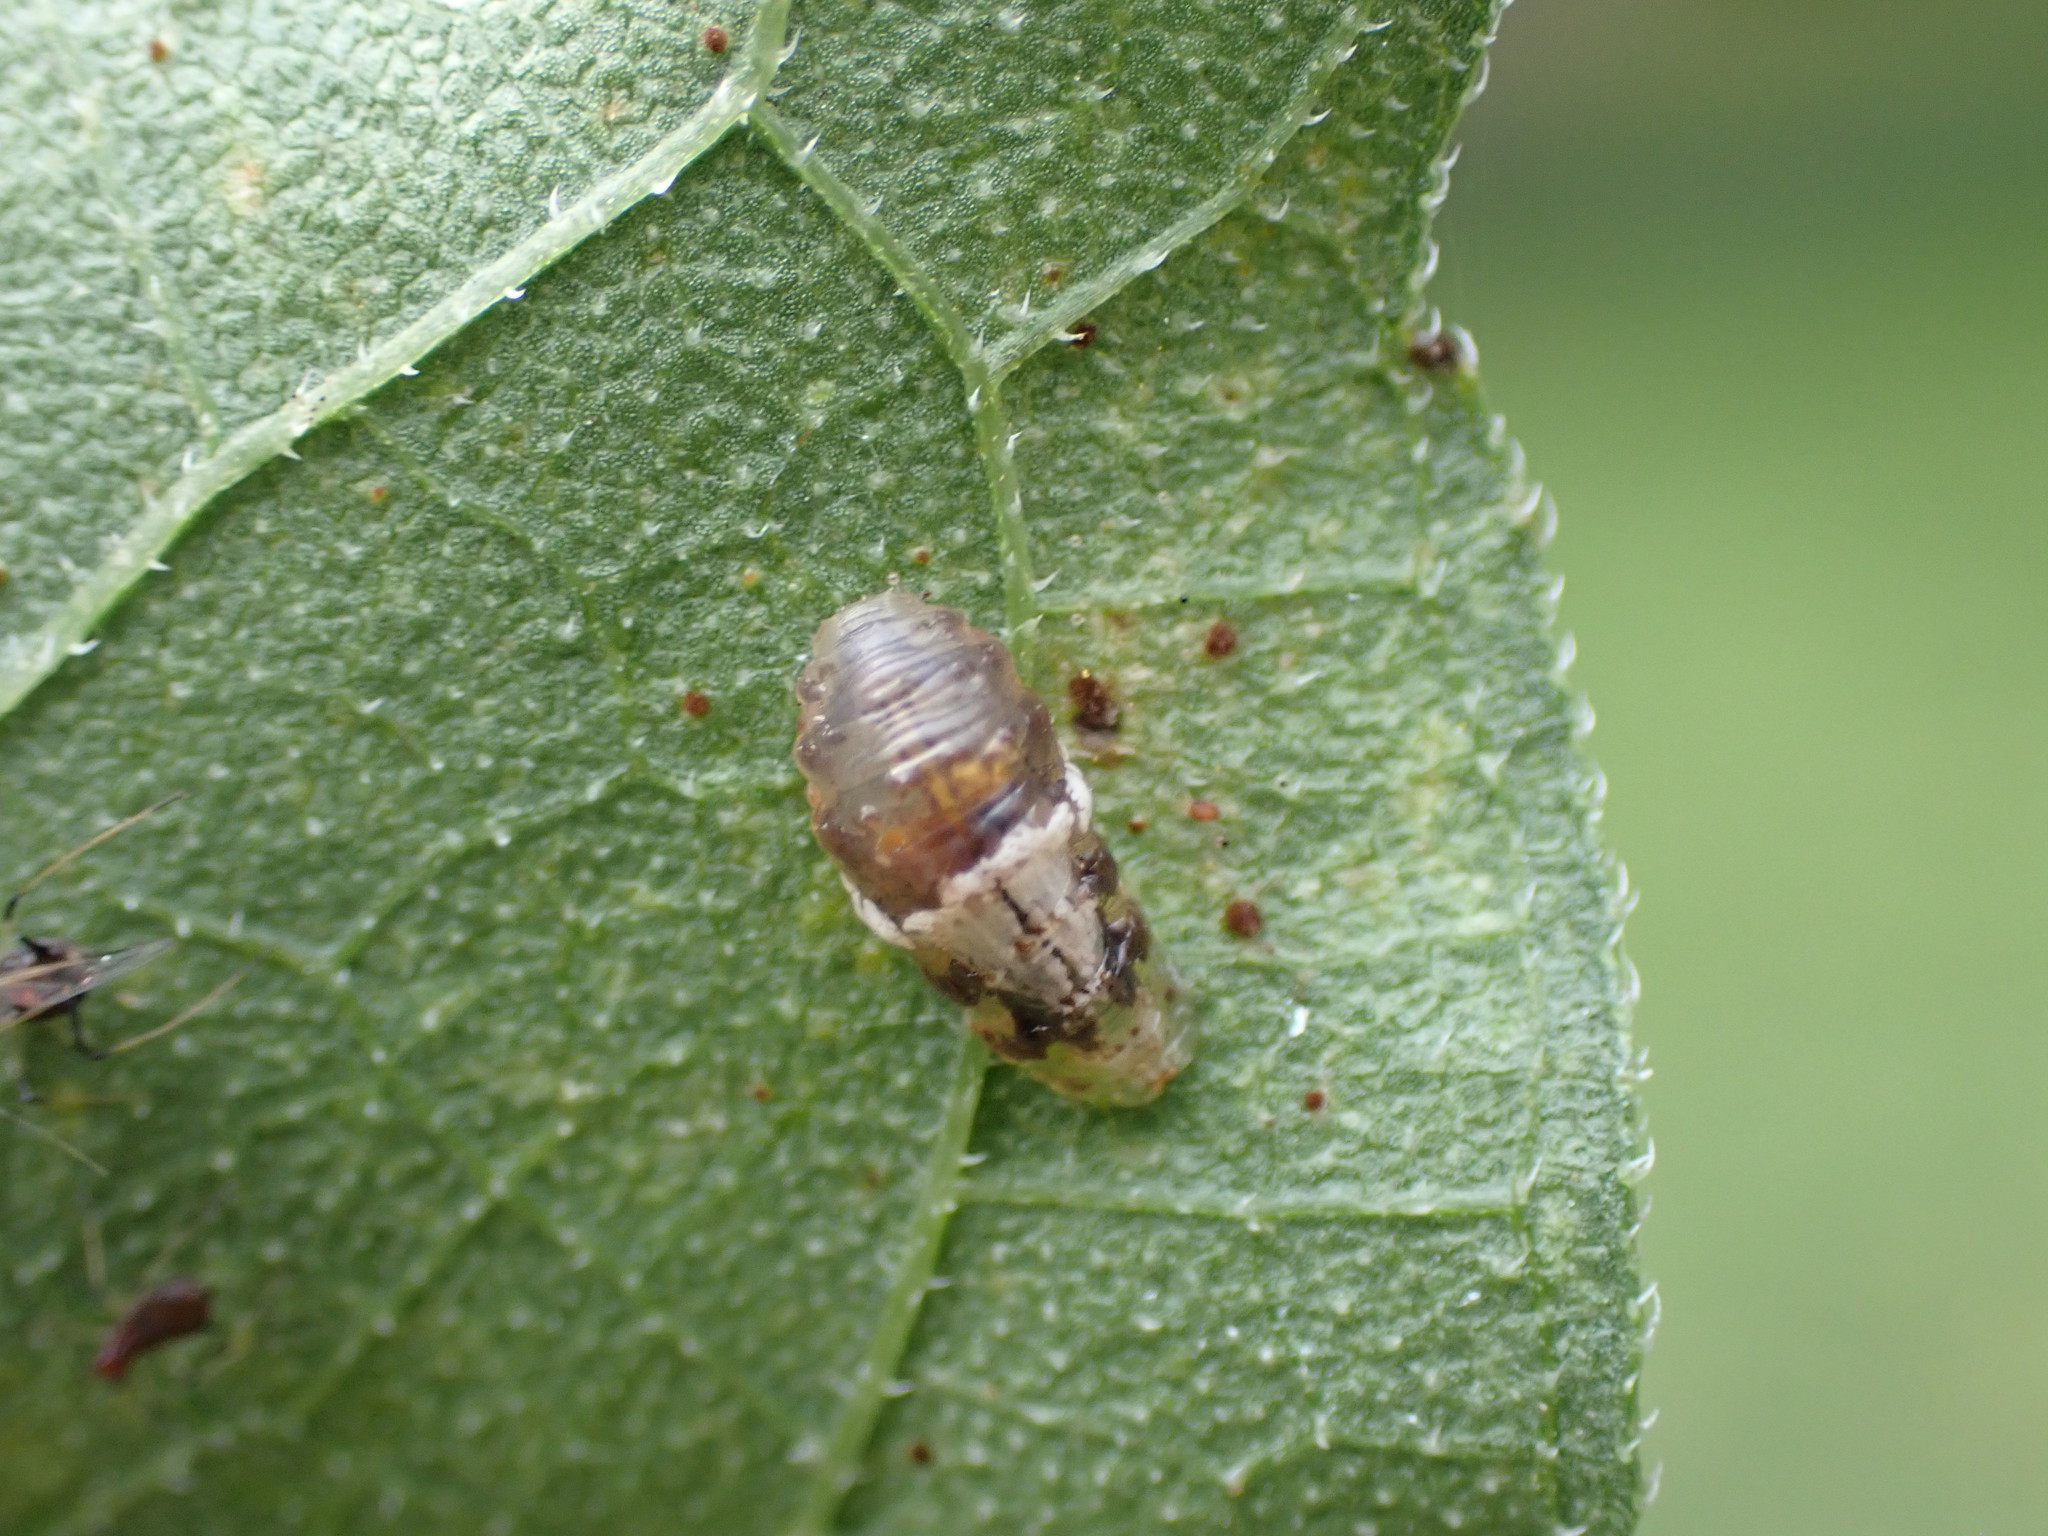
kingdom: Animalia
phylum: Arthropoda
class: Insecta
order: Diptera
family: Syrphidae
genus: Ocyptamus
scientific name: Ocyptamus fuscipennis
